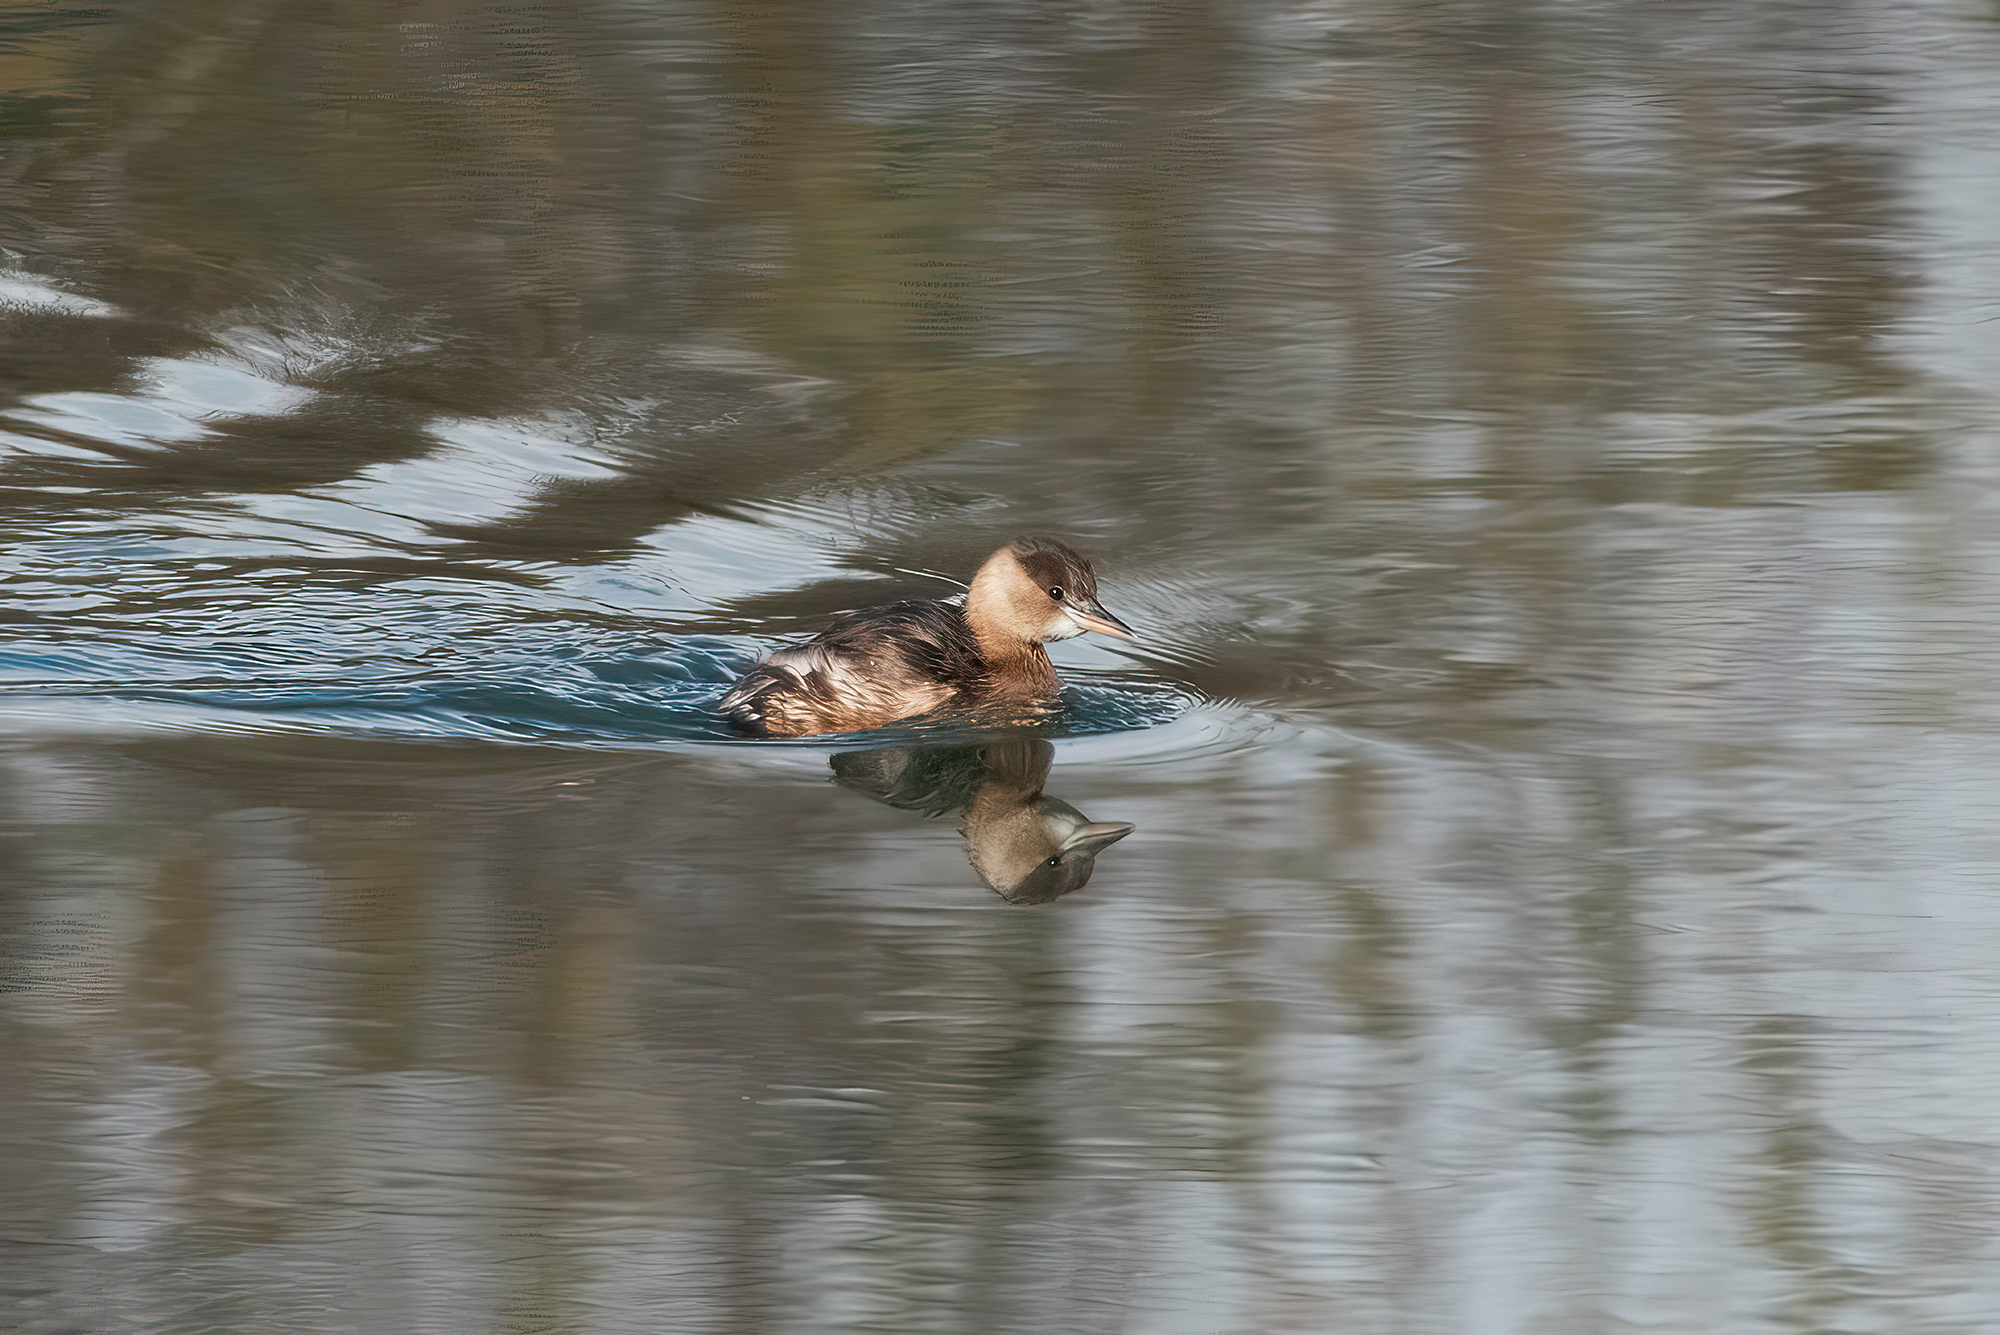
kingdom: Animalia
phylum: Chordata
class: Aves
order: Podicipediformes
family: Podicipedidae
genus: Tachybaptus
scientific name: Tachybaptus ruficollis
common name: Little grebe
